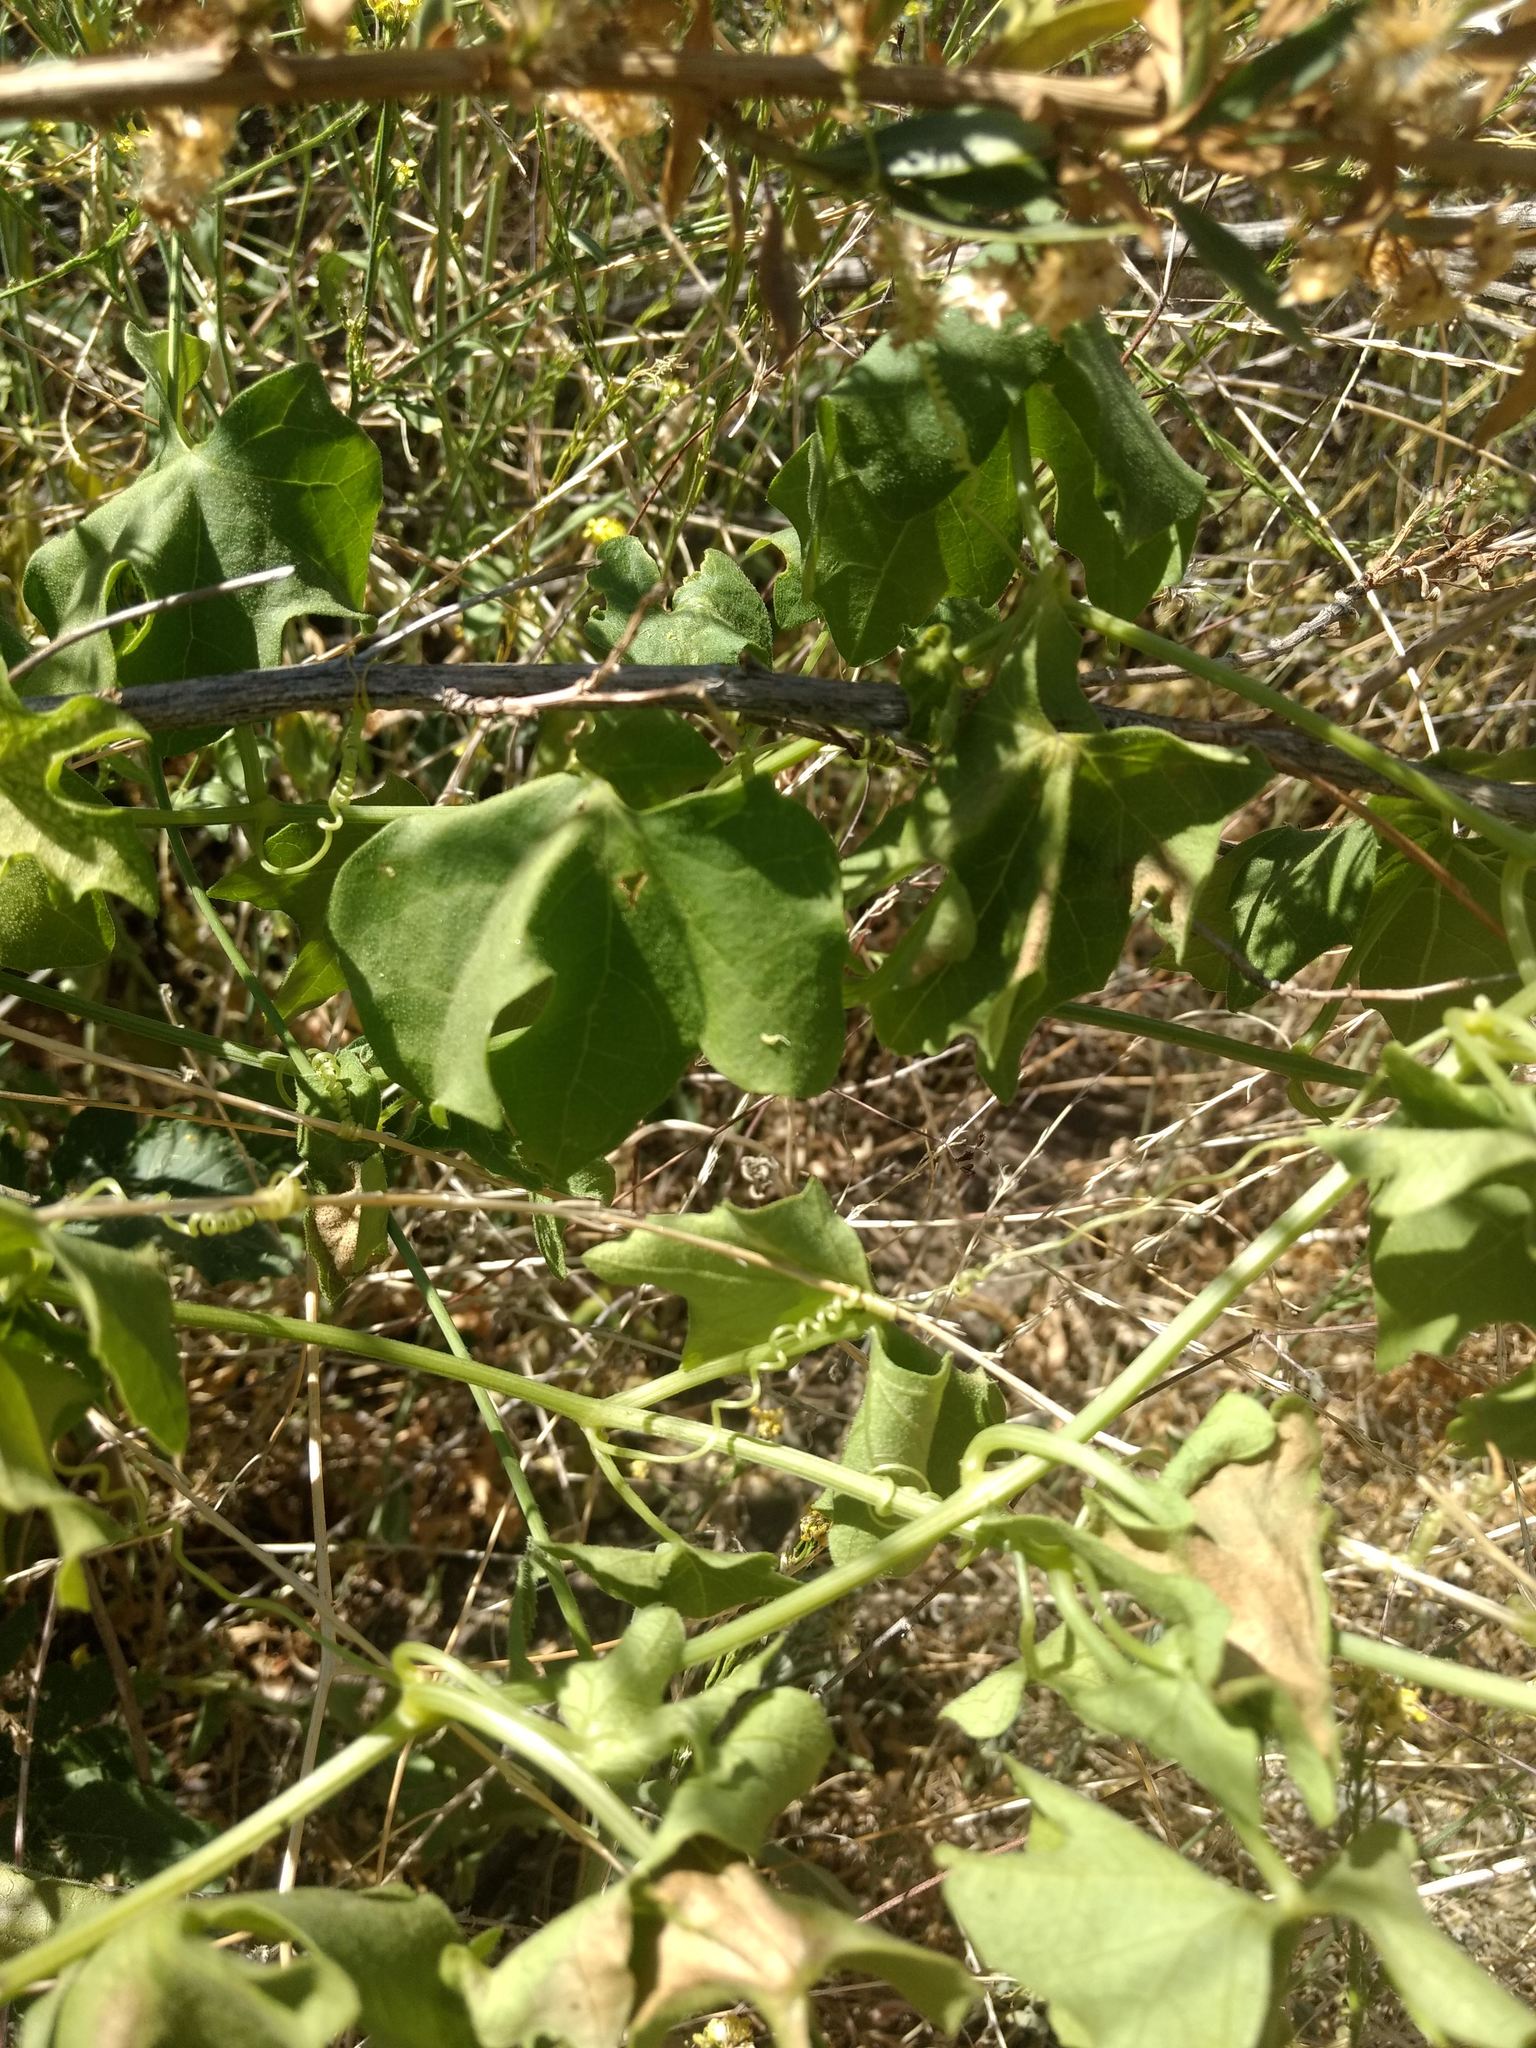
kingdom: Plantae
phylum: Tracheophyta
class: Magnoliopsida
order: Cucurbitales
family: Cucurbitaceae
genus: Marah
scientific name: Marah macrocarpa
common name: Cucamonga manroot
